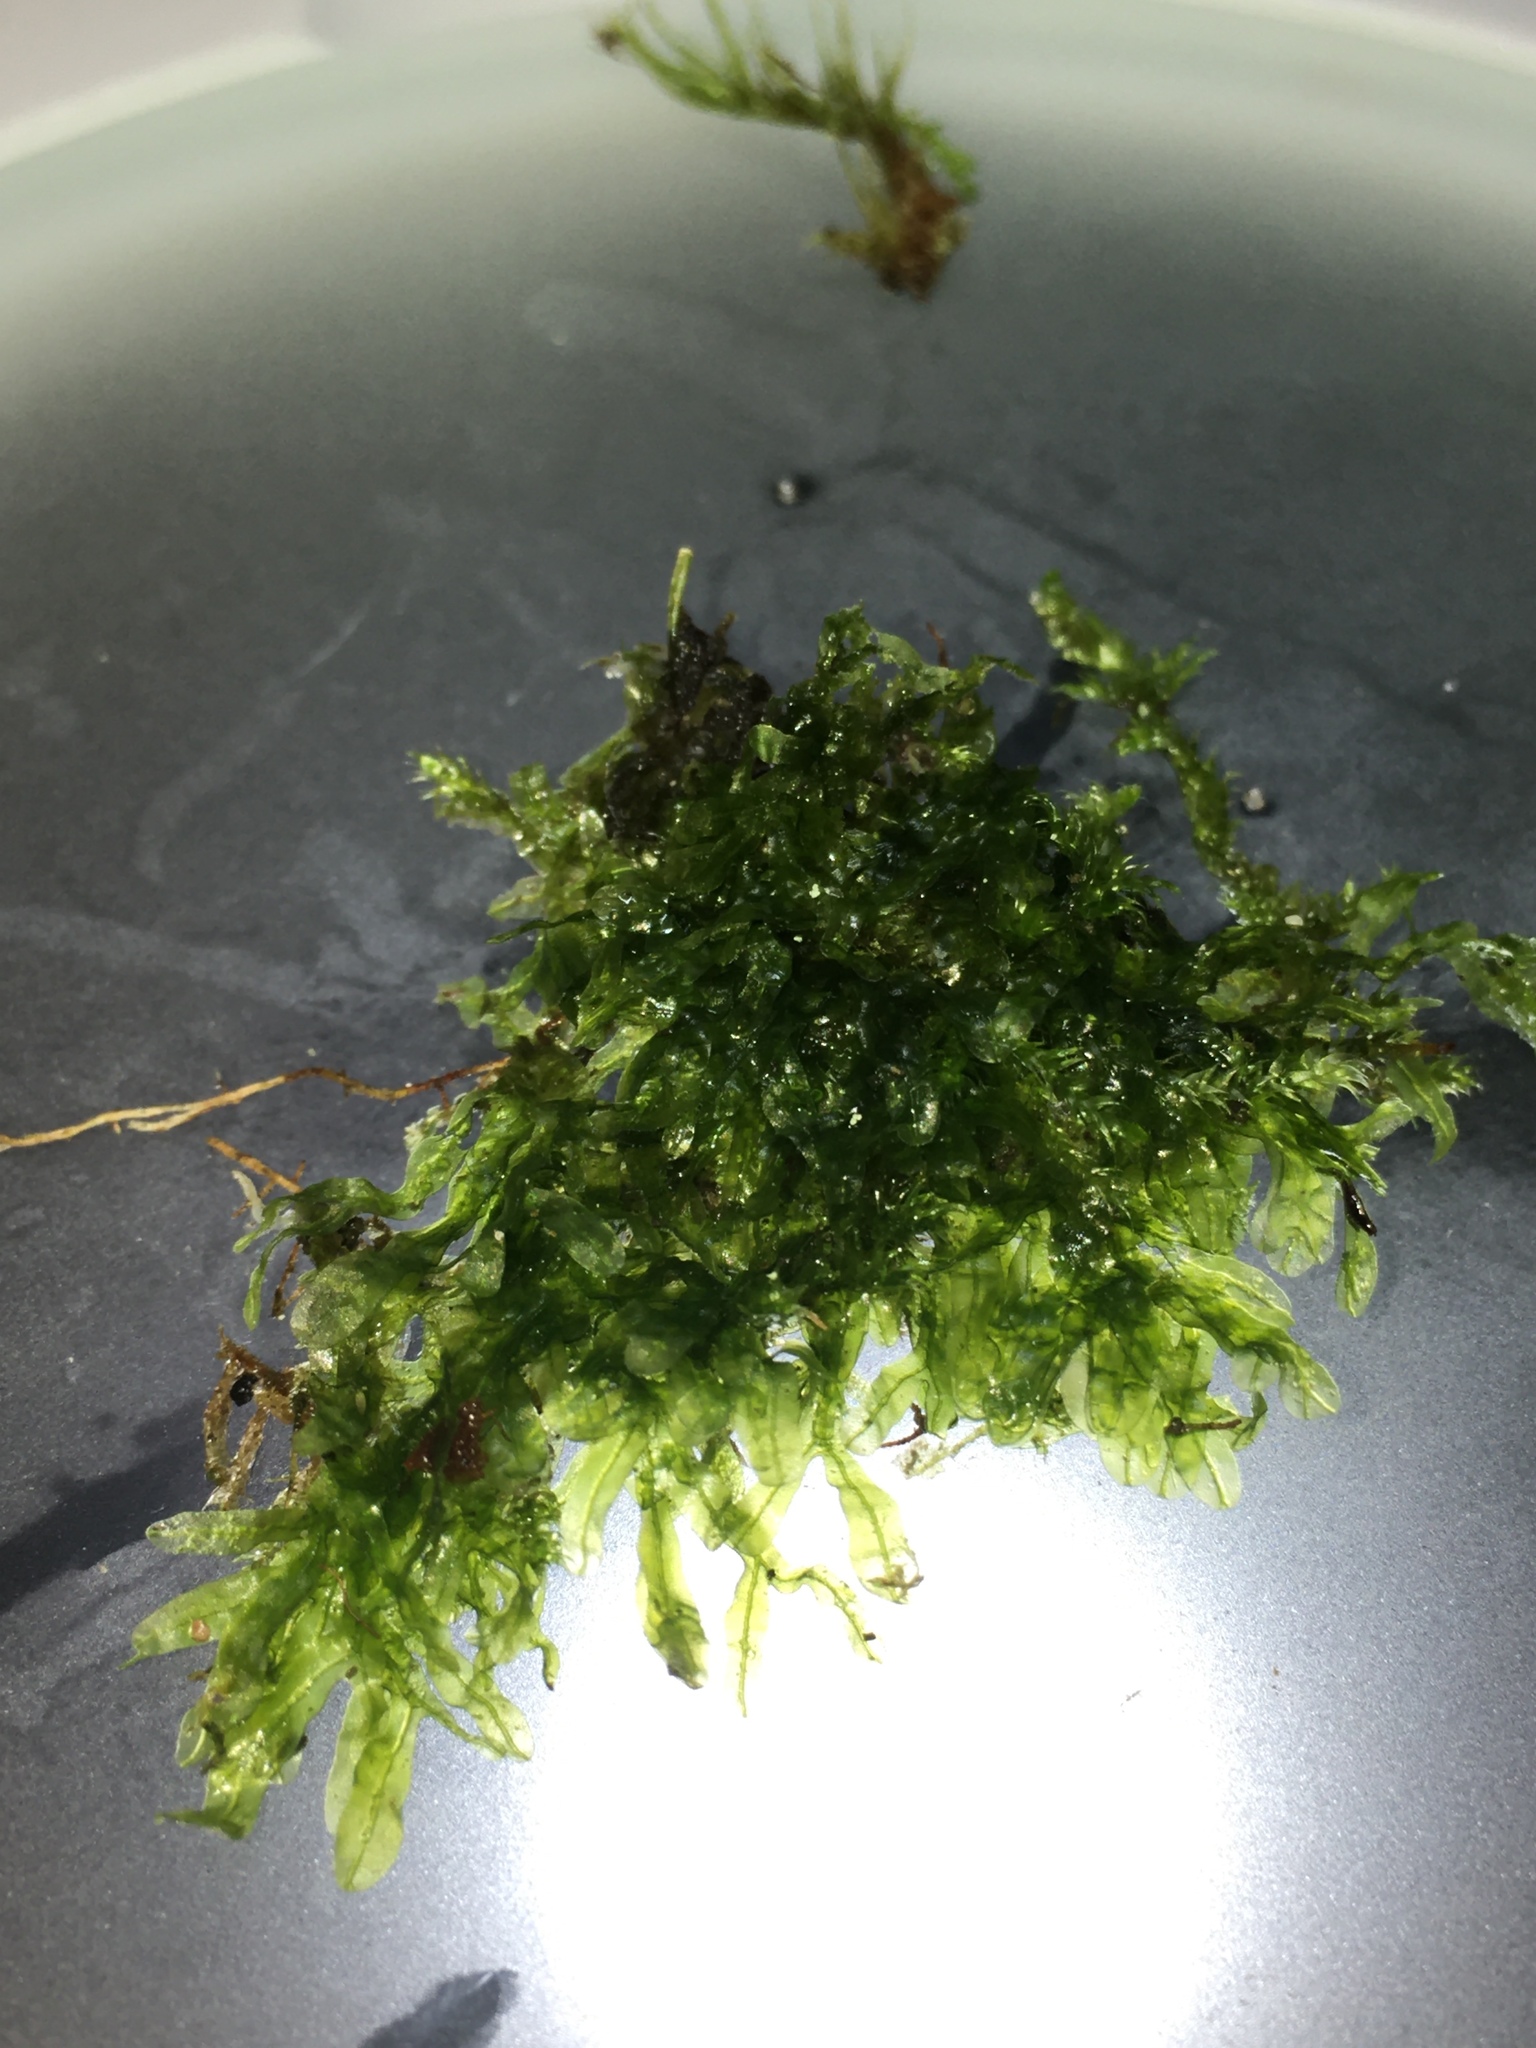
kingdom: Plantae
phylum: Marchantiophyta
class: Jungermanniopsida
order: Metzgeriales
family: Metzgeriaceae
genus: Metzgeria
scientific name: Metzgeria furcata
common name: Forked veilwort
